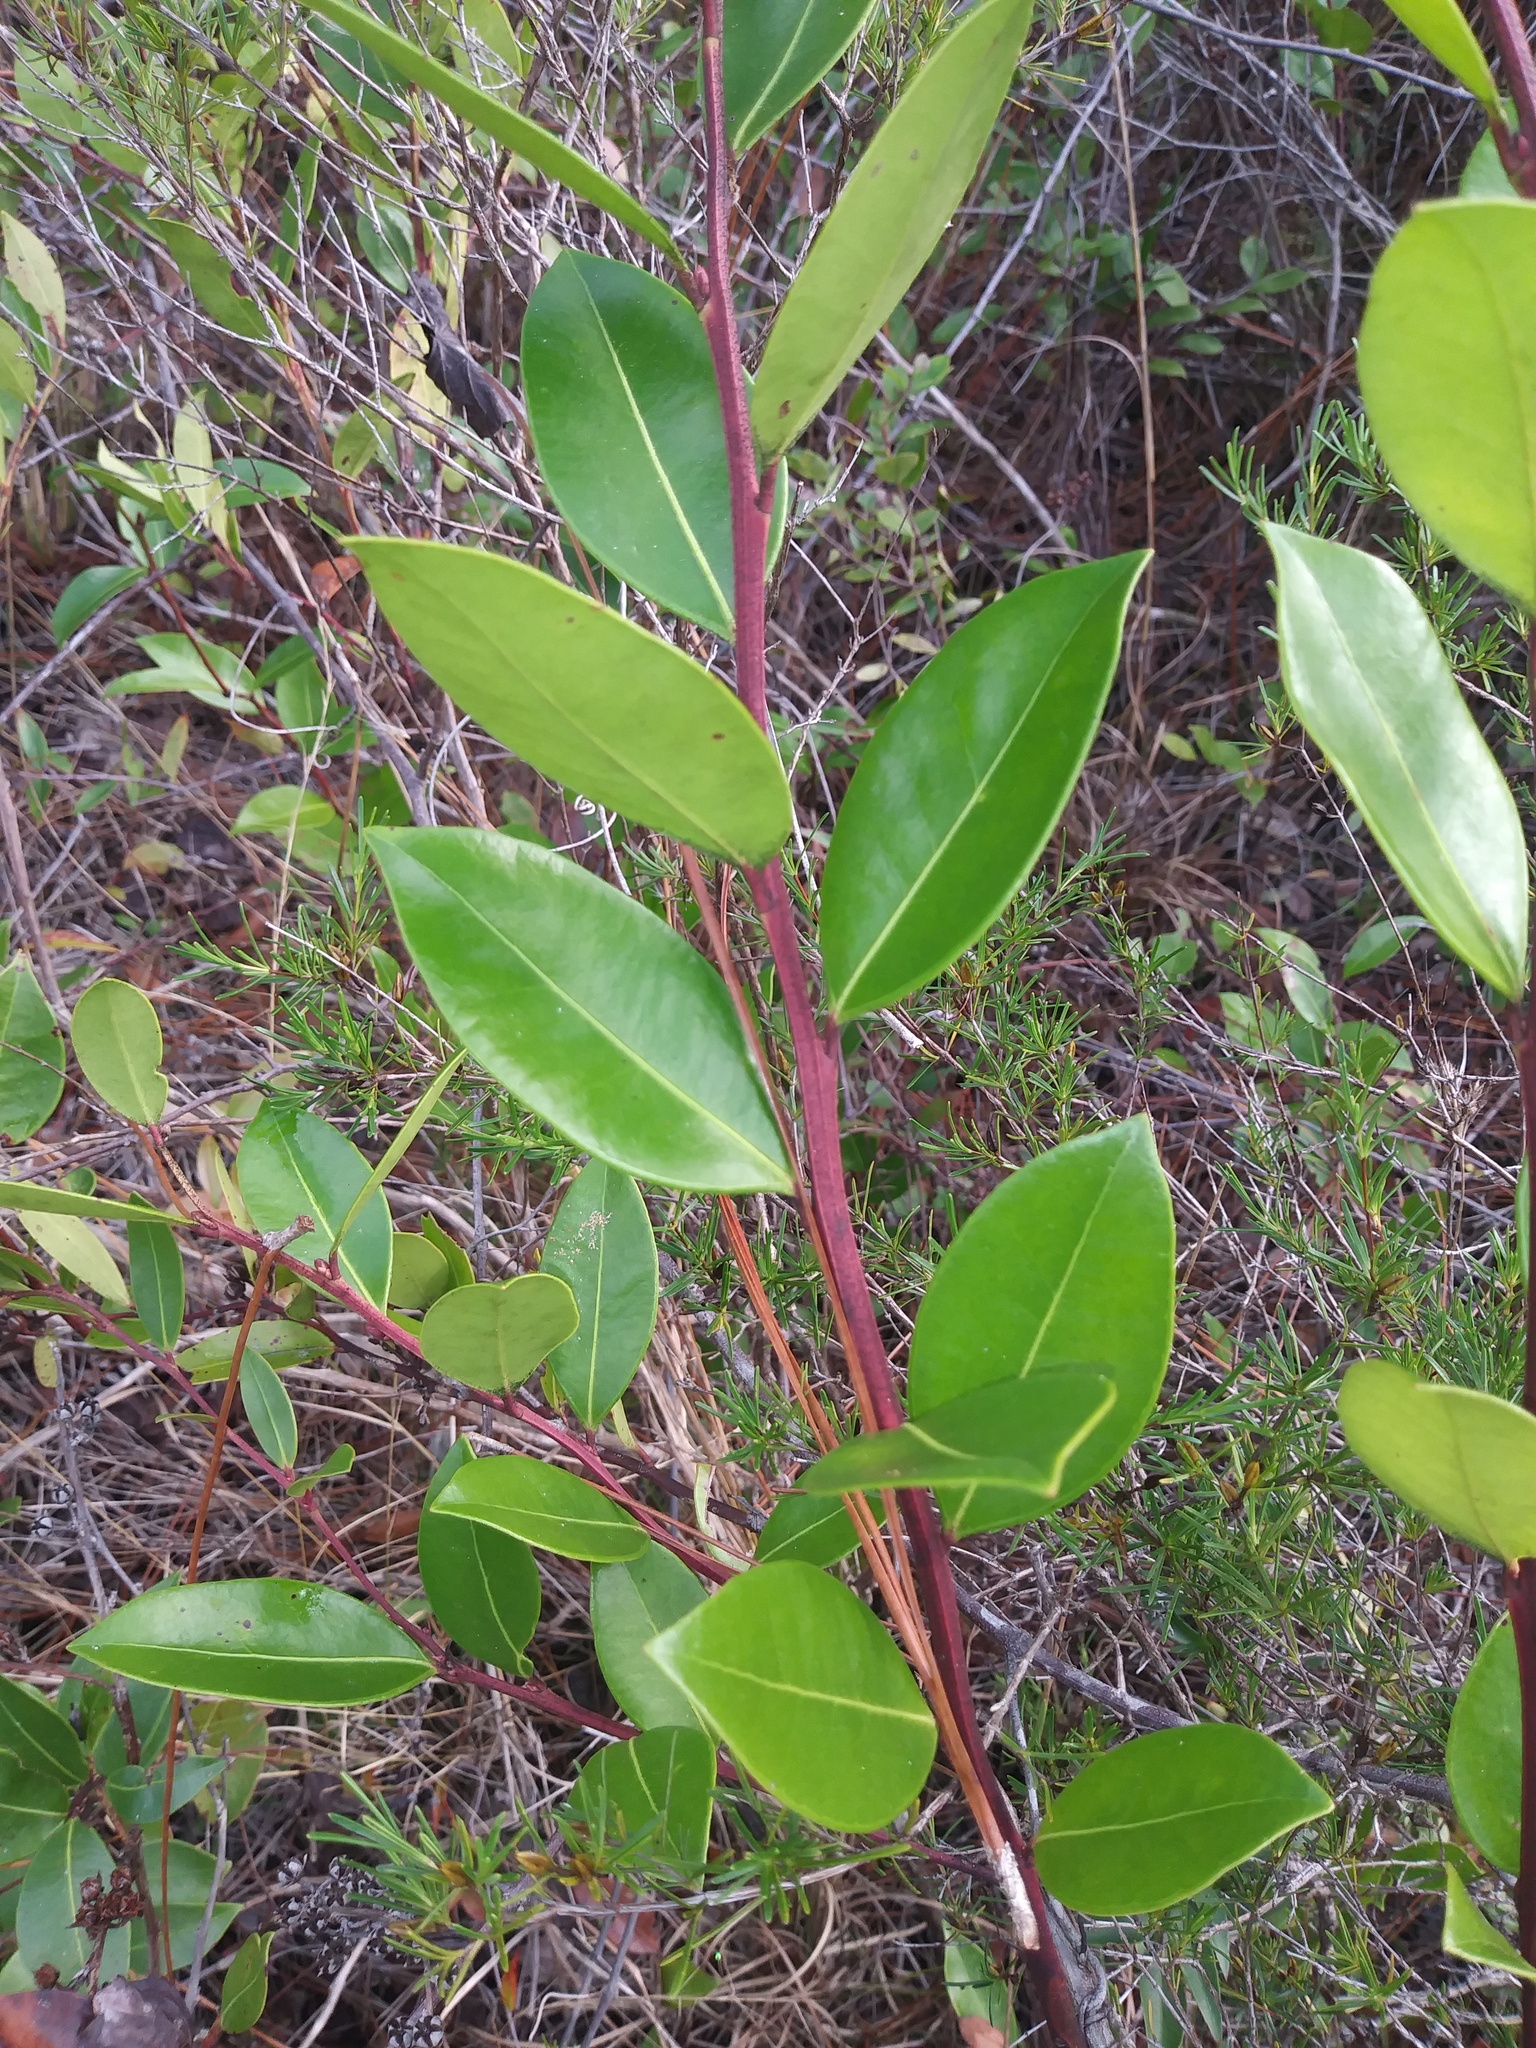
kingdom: Plantae
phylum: Tracheophyta
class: Magnoliopsida
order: Ericales
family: Ericaceae
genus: Lyonia
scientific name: Lyonia lucida
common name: Fetterbush
